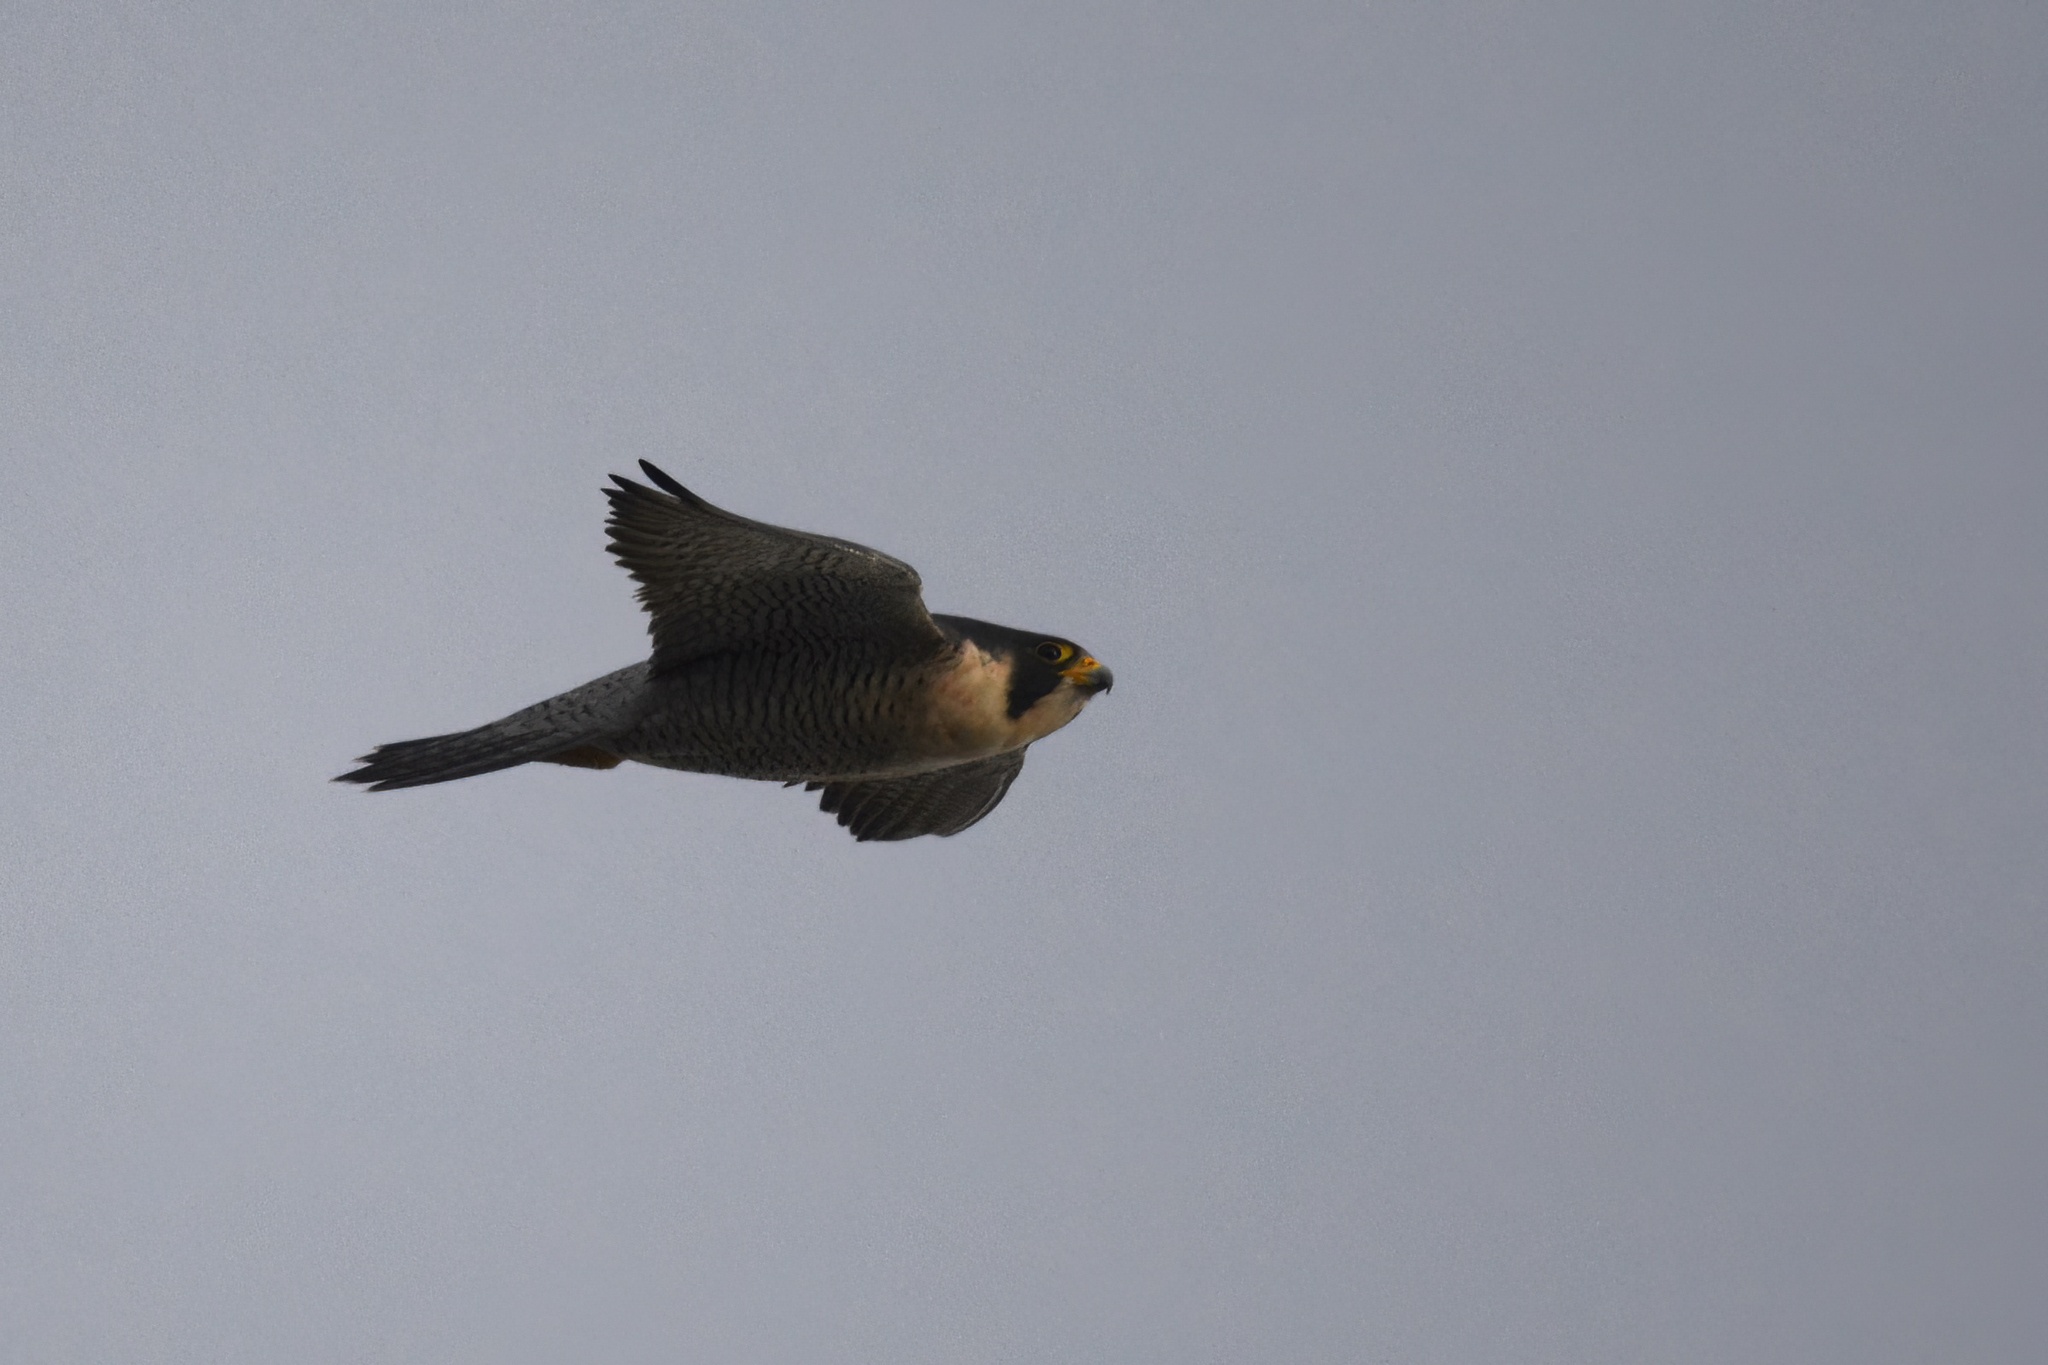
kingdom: Animalia
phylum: Chordata
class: Aves
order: Falconiformes
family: Falconidae
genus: Falco
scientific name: Falco peregrinus
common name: Peregrine falcon
